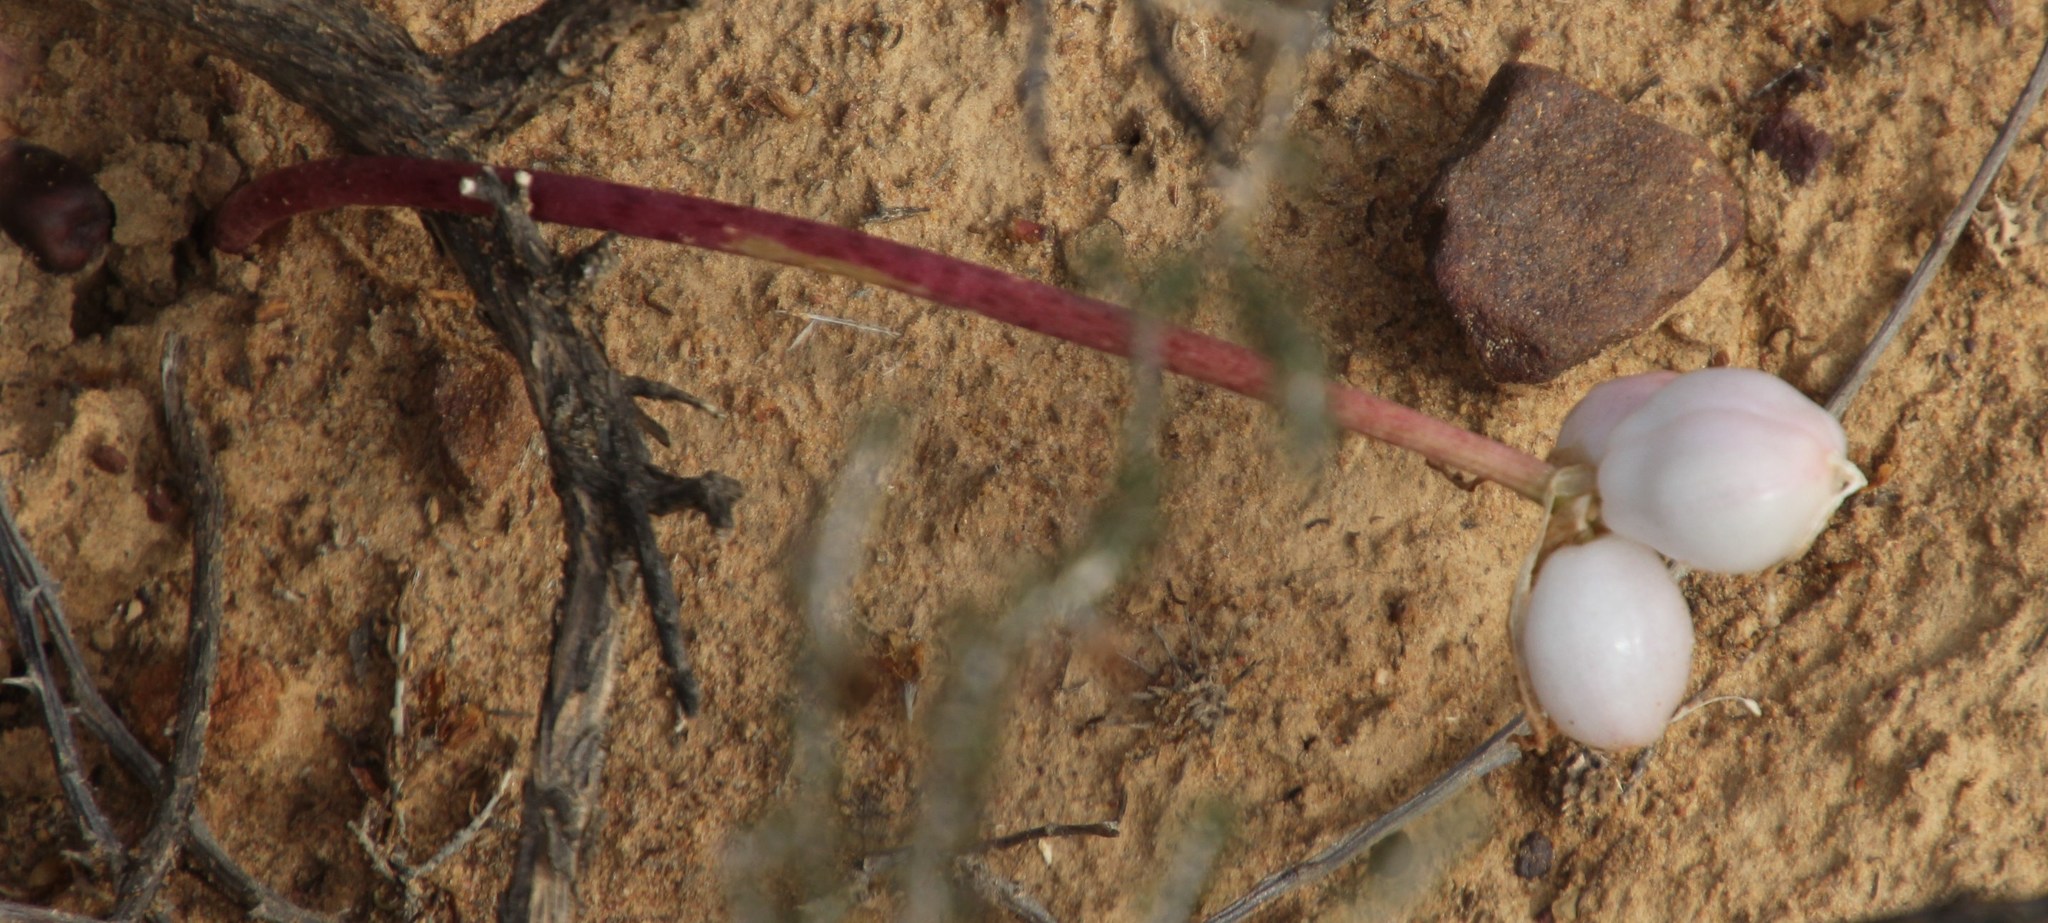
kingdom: Plantae
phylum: Tracheophyta
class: Liliopsida
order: Asparagales
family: Amaryllidaceae
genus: Haemanthus
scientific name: Haemanthus crispus
